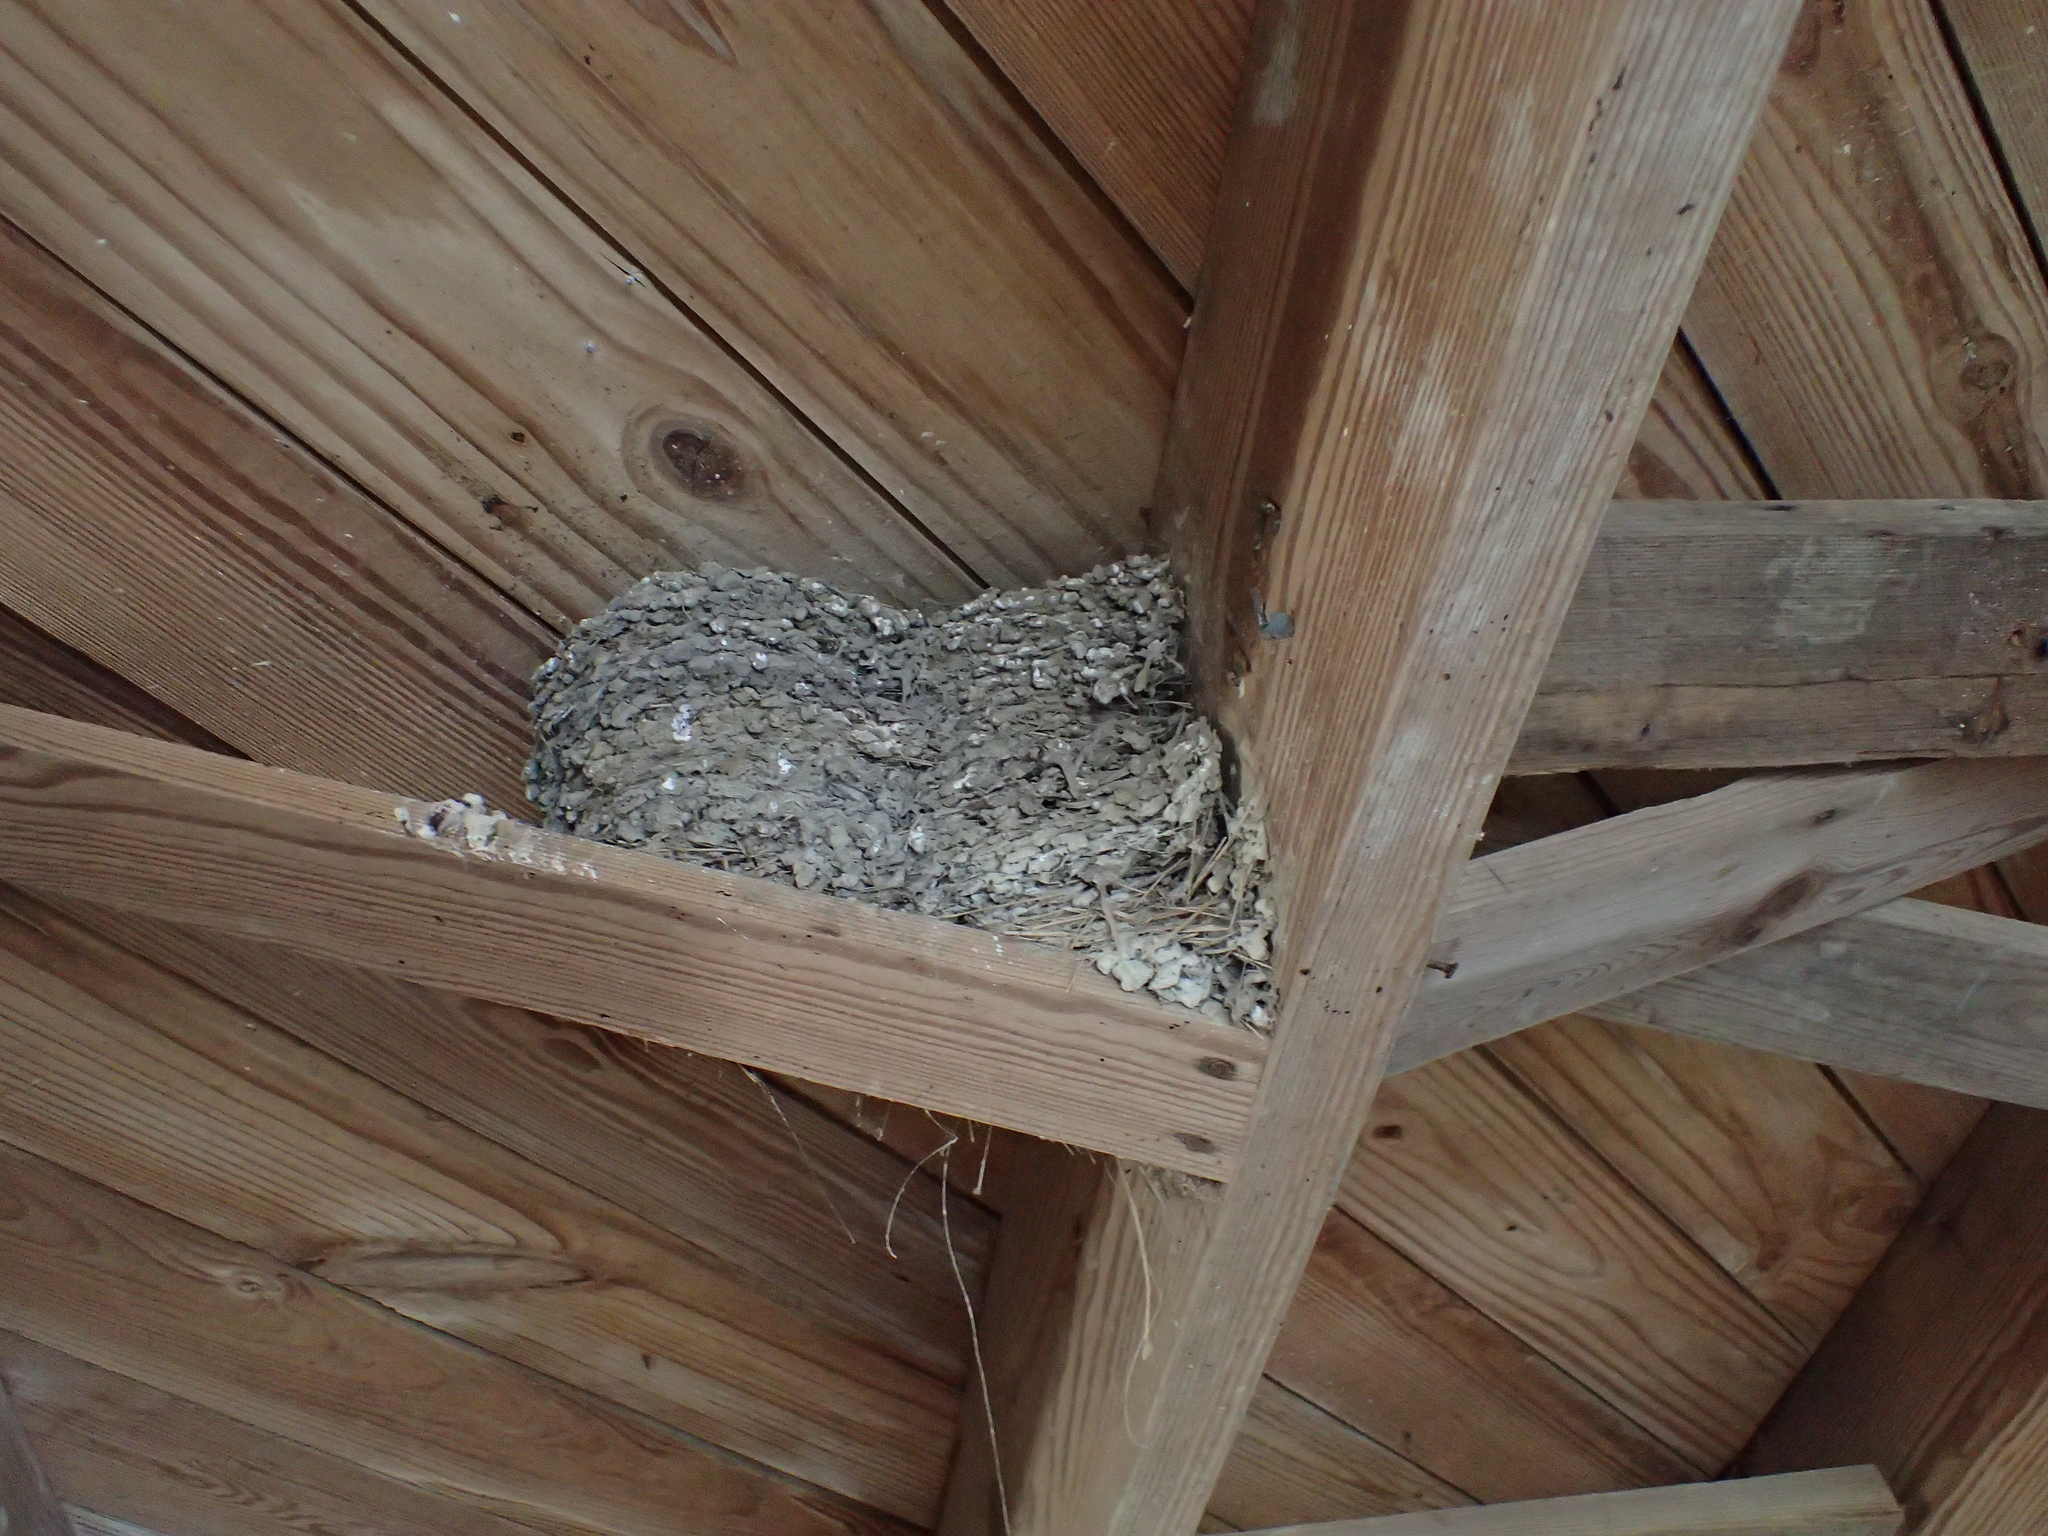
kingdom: Animalia
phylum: Chordata
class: Aves
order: Passeriformes
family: Hirundinidae
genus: Hirundo
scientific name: Hirundo rustica
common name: Barn swallow
